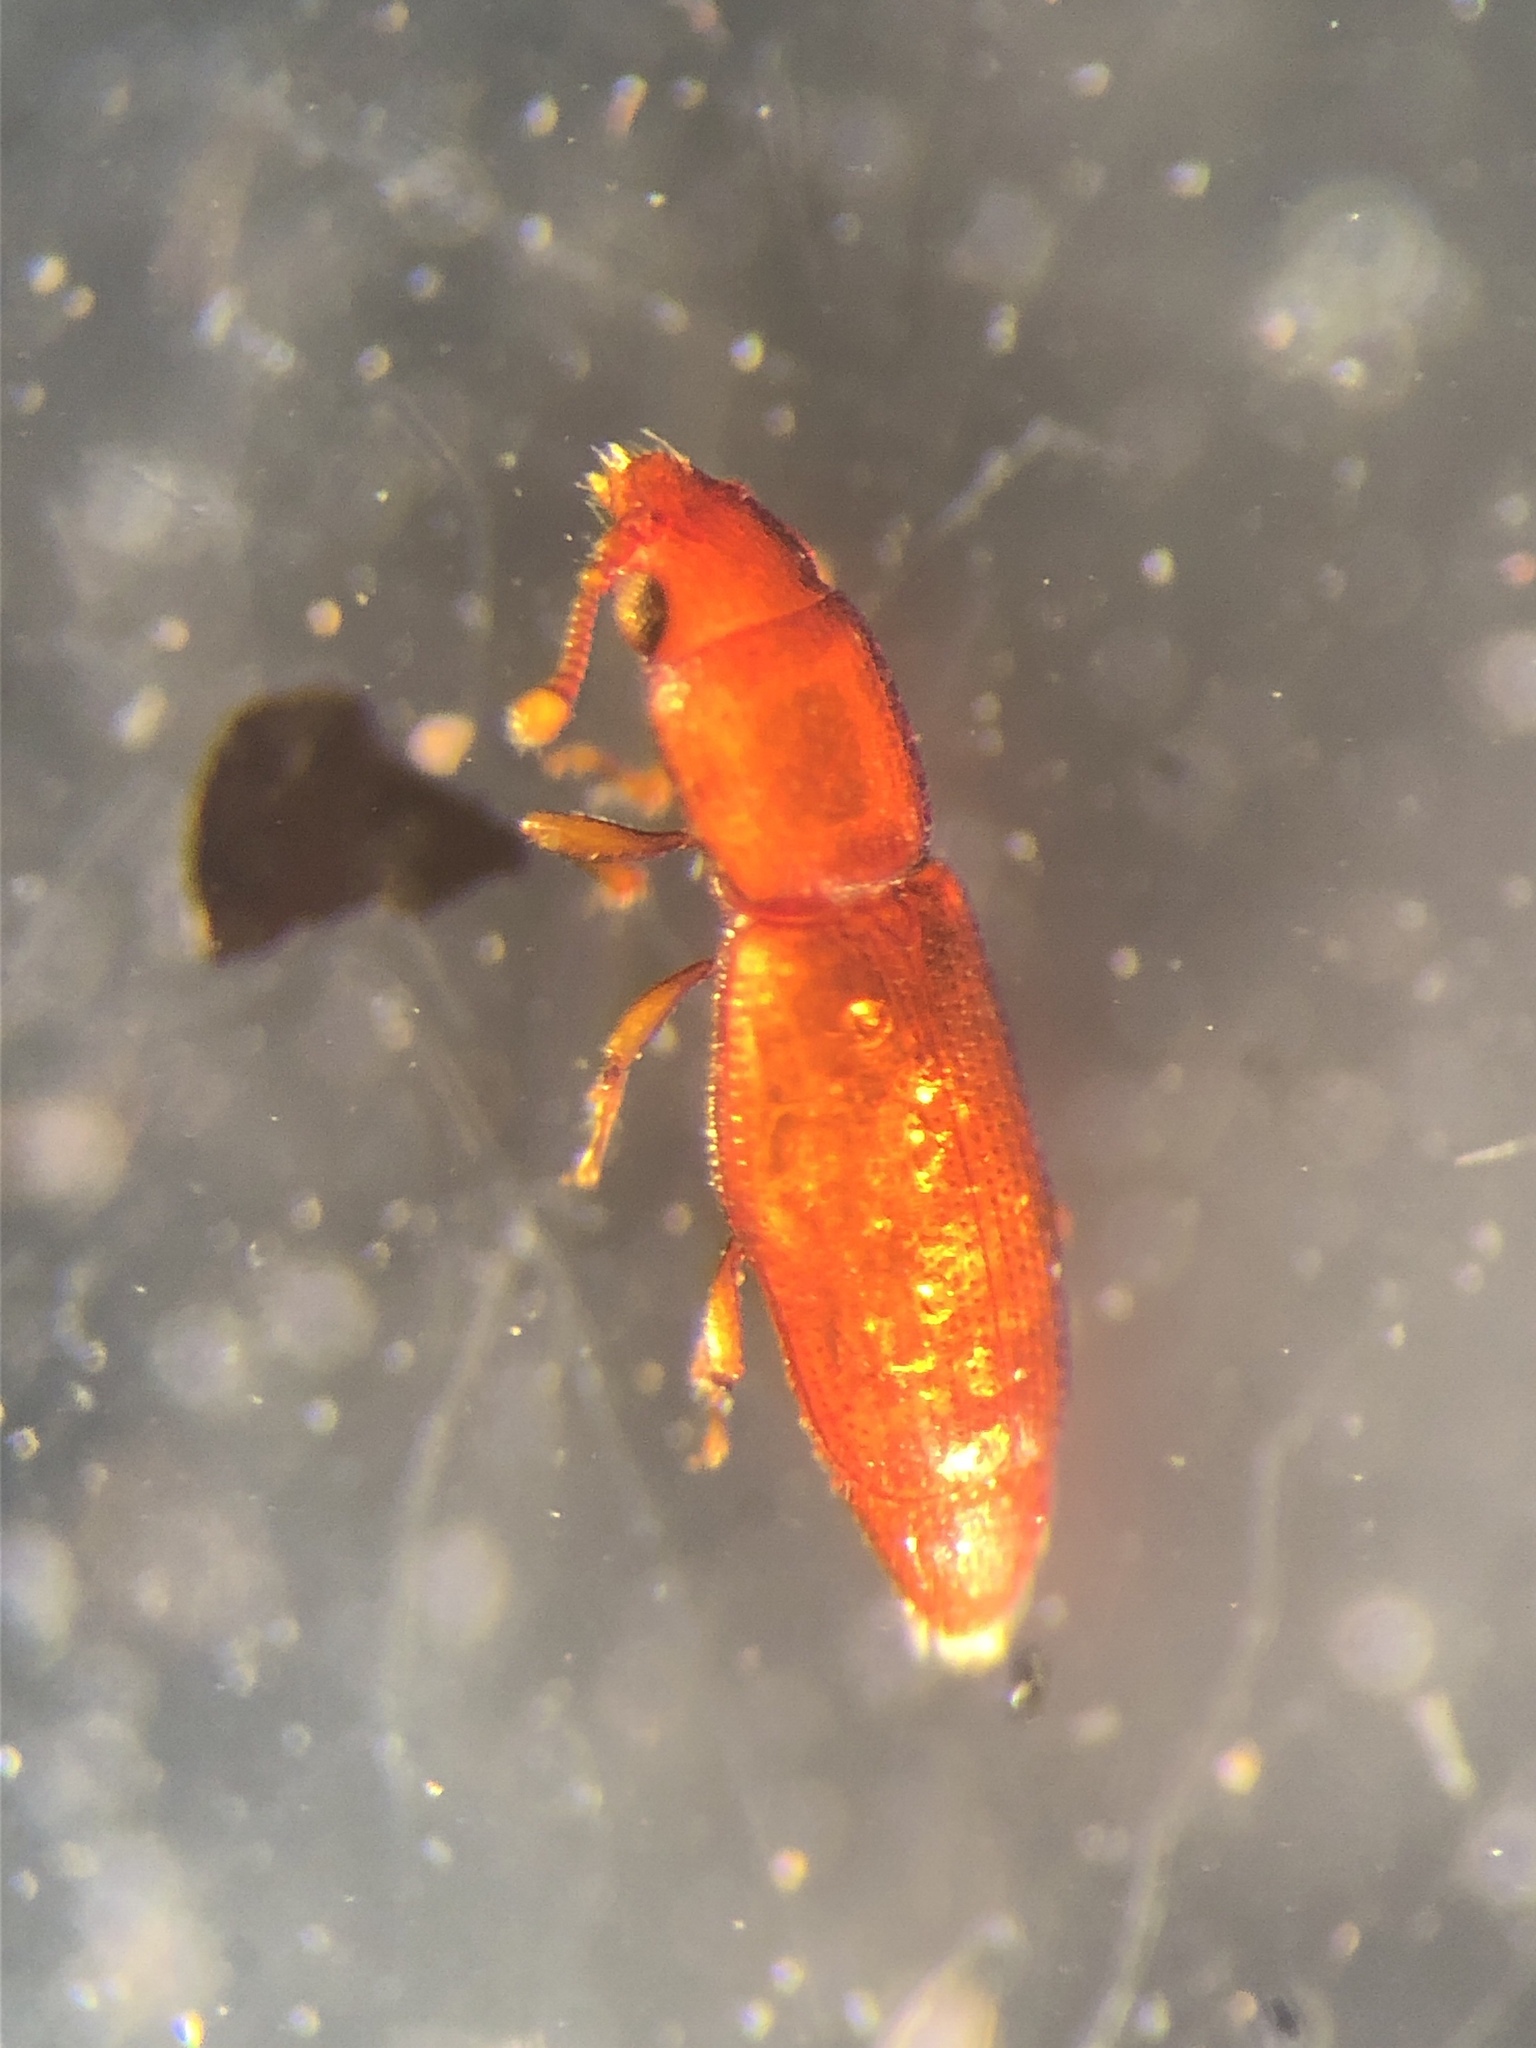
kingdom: Animalia
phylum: Arthropoda
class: Insecta
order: Coleoptera
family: Monotomidae
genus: Bactridium
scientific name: Bactridium striolatum
